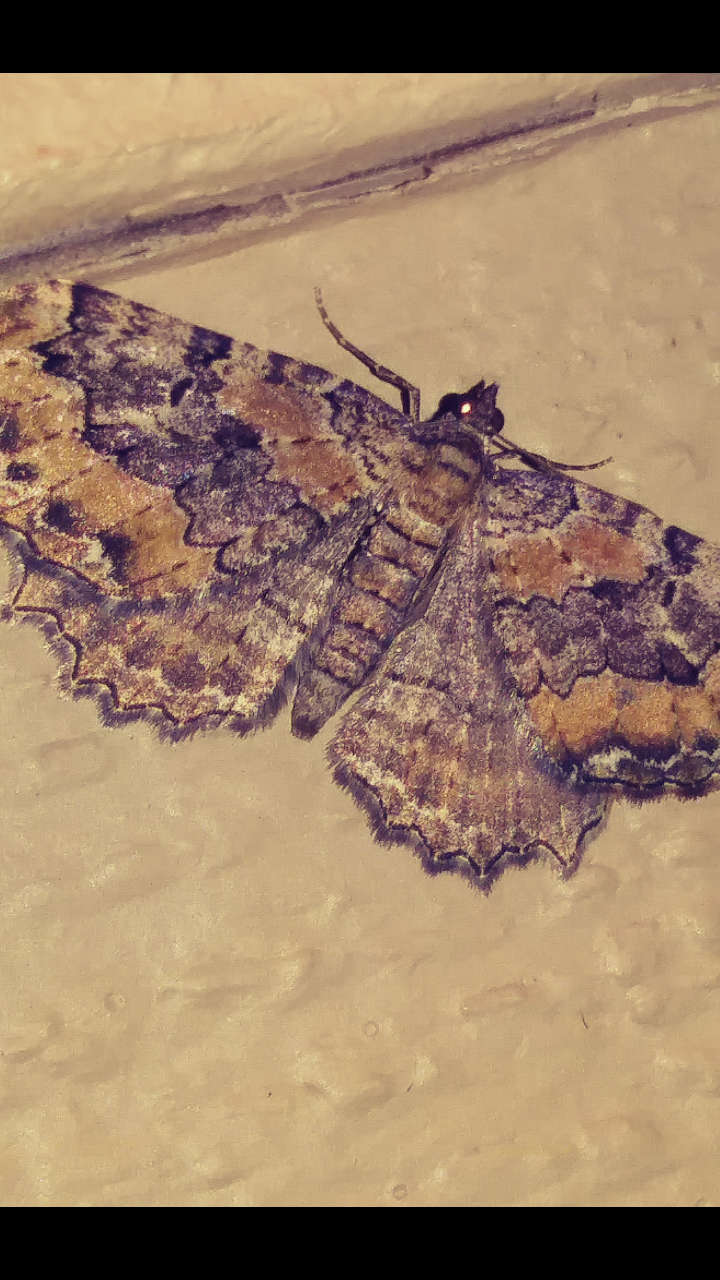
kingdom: Animalia
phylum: Arthropoda
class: Insecta
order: Lepidoptera
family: Geometridae
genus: Rheumaptera
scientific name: Rheumaptera
